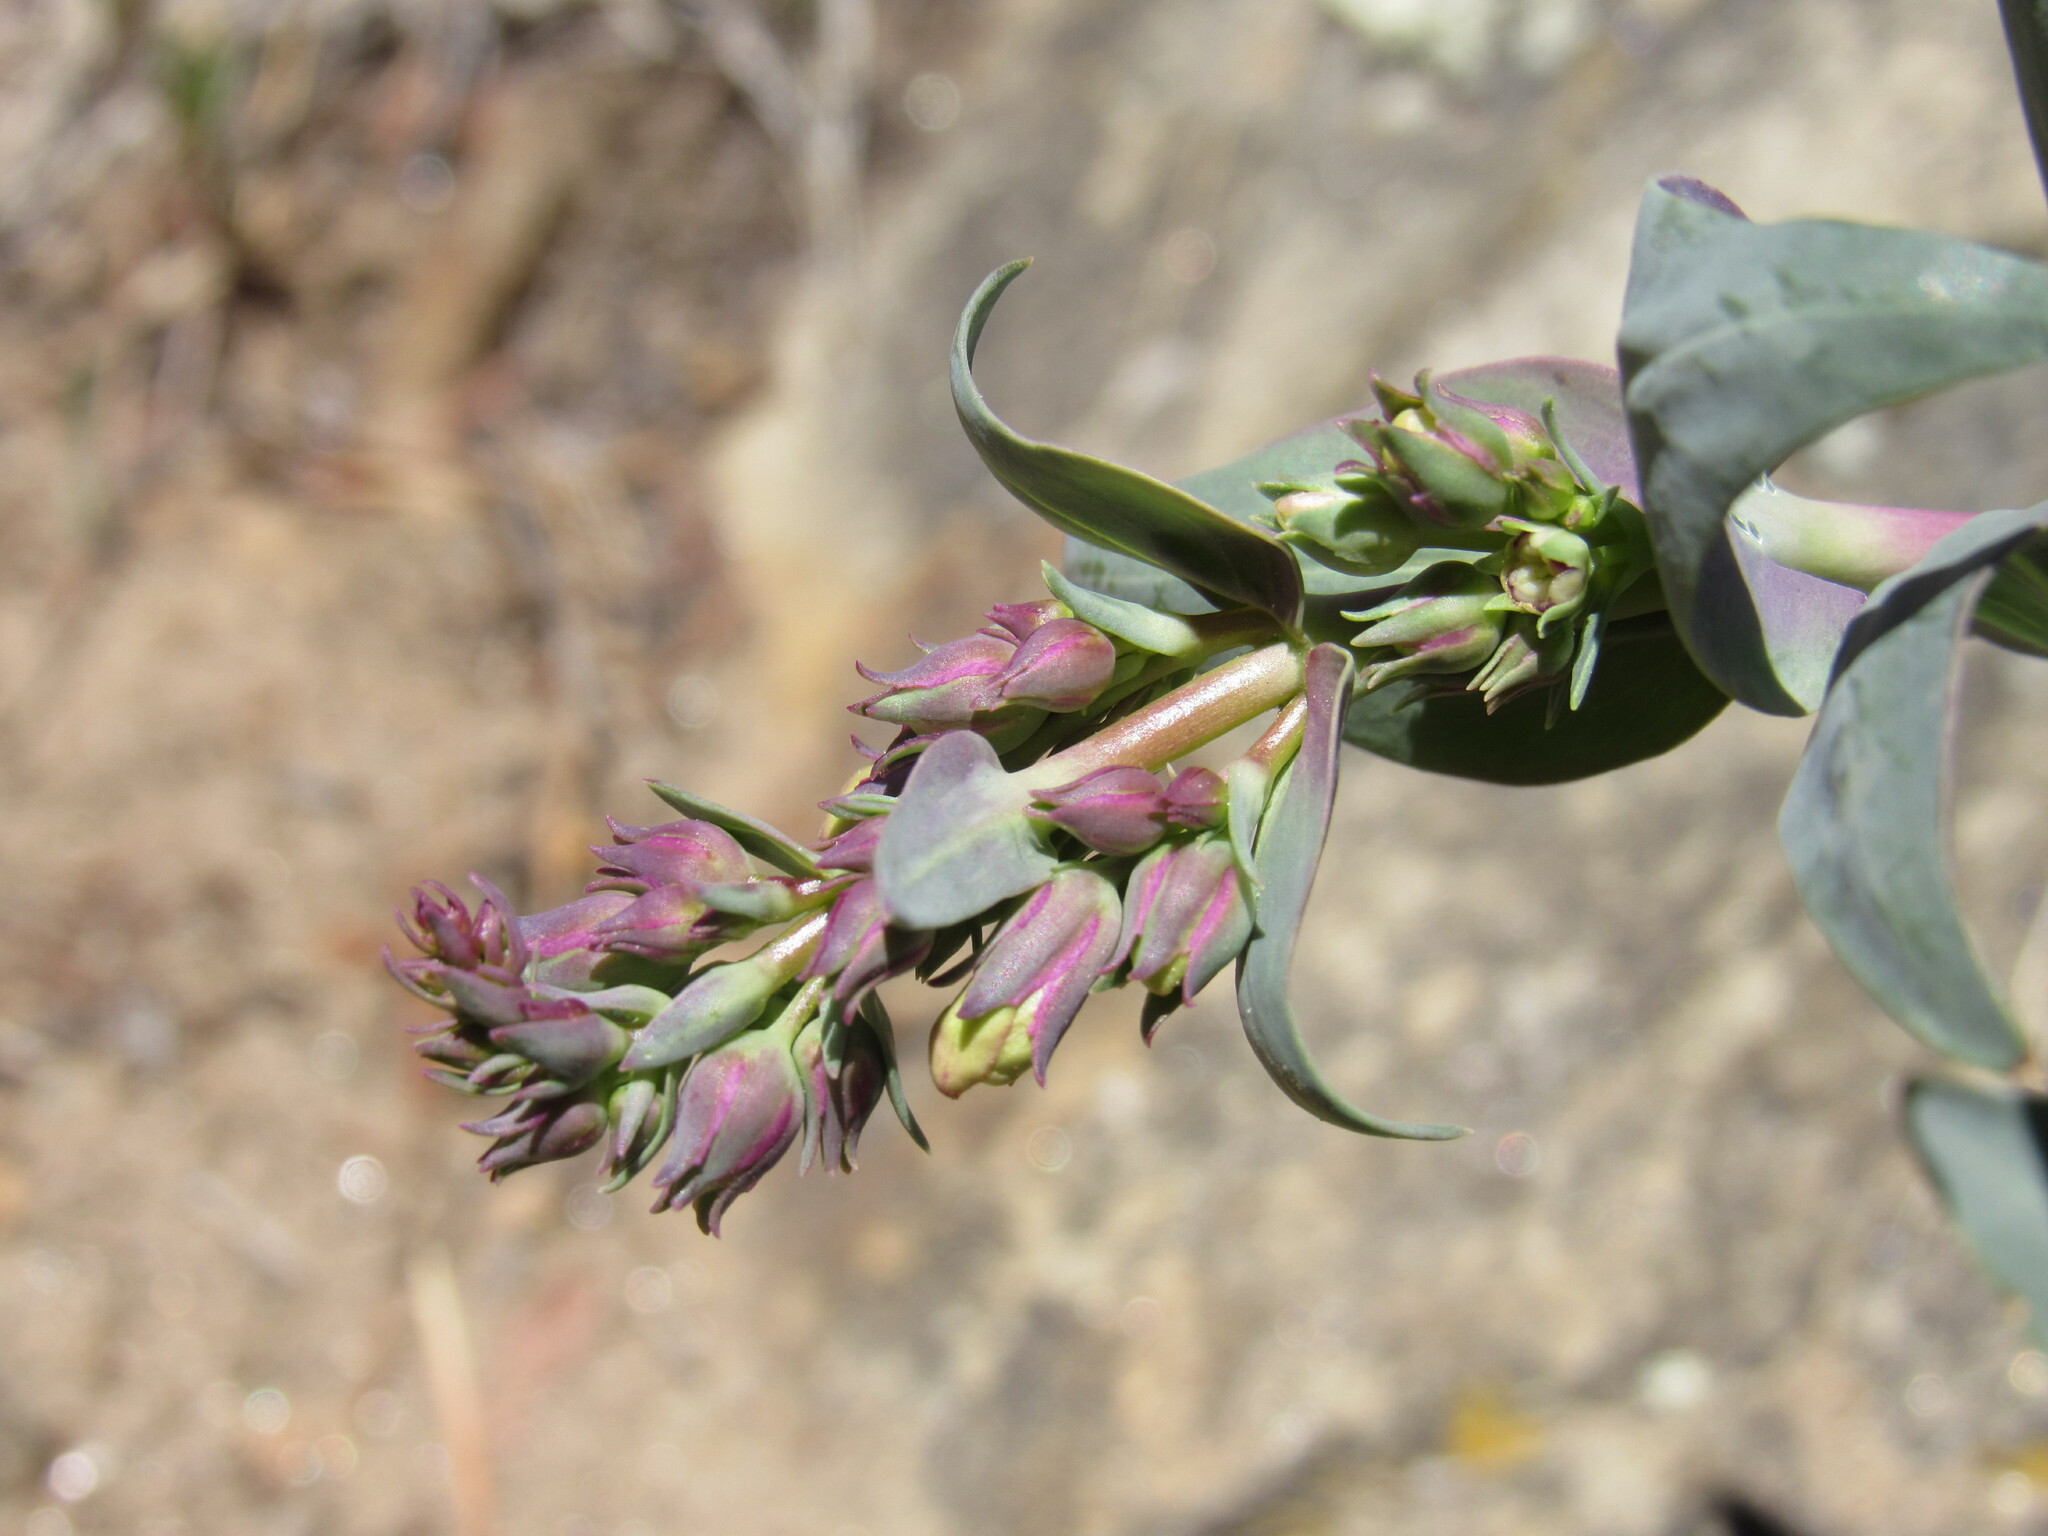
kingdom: Plantae
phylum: Tracheophyta
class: Magnoliopsida
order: Lamiales
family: Plantaginaceae
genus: Penstemon
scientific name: Penstemon secundiflorus
